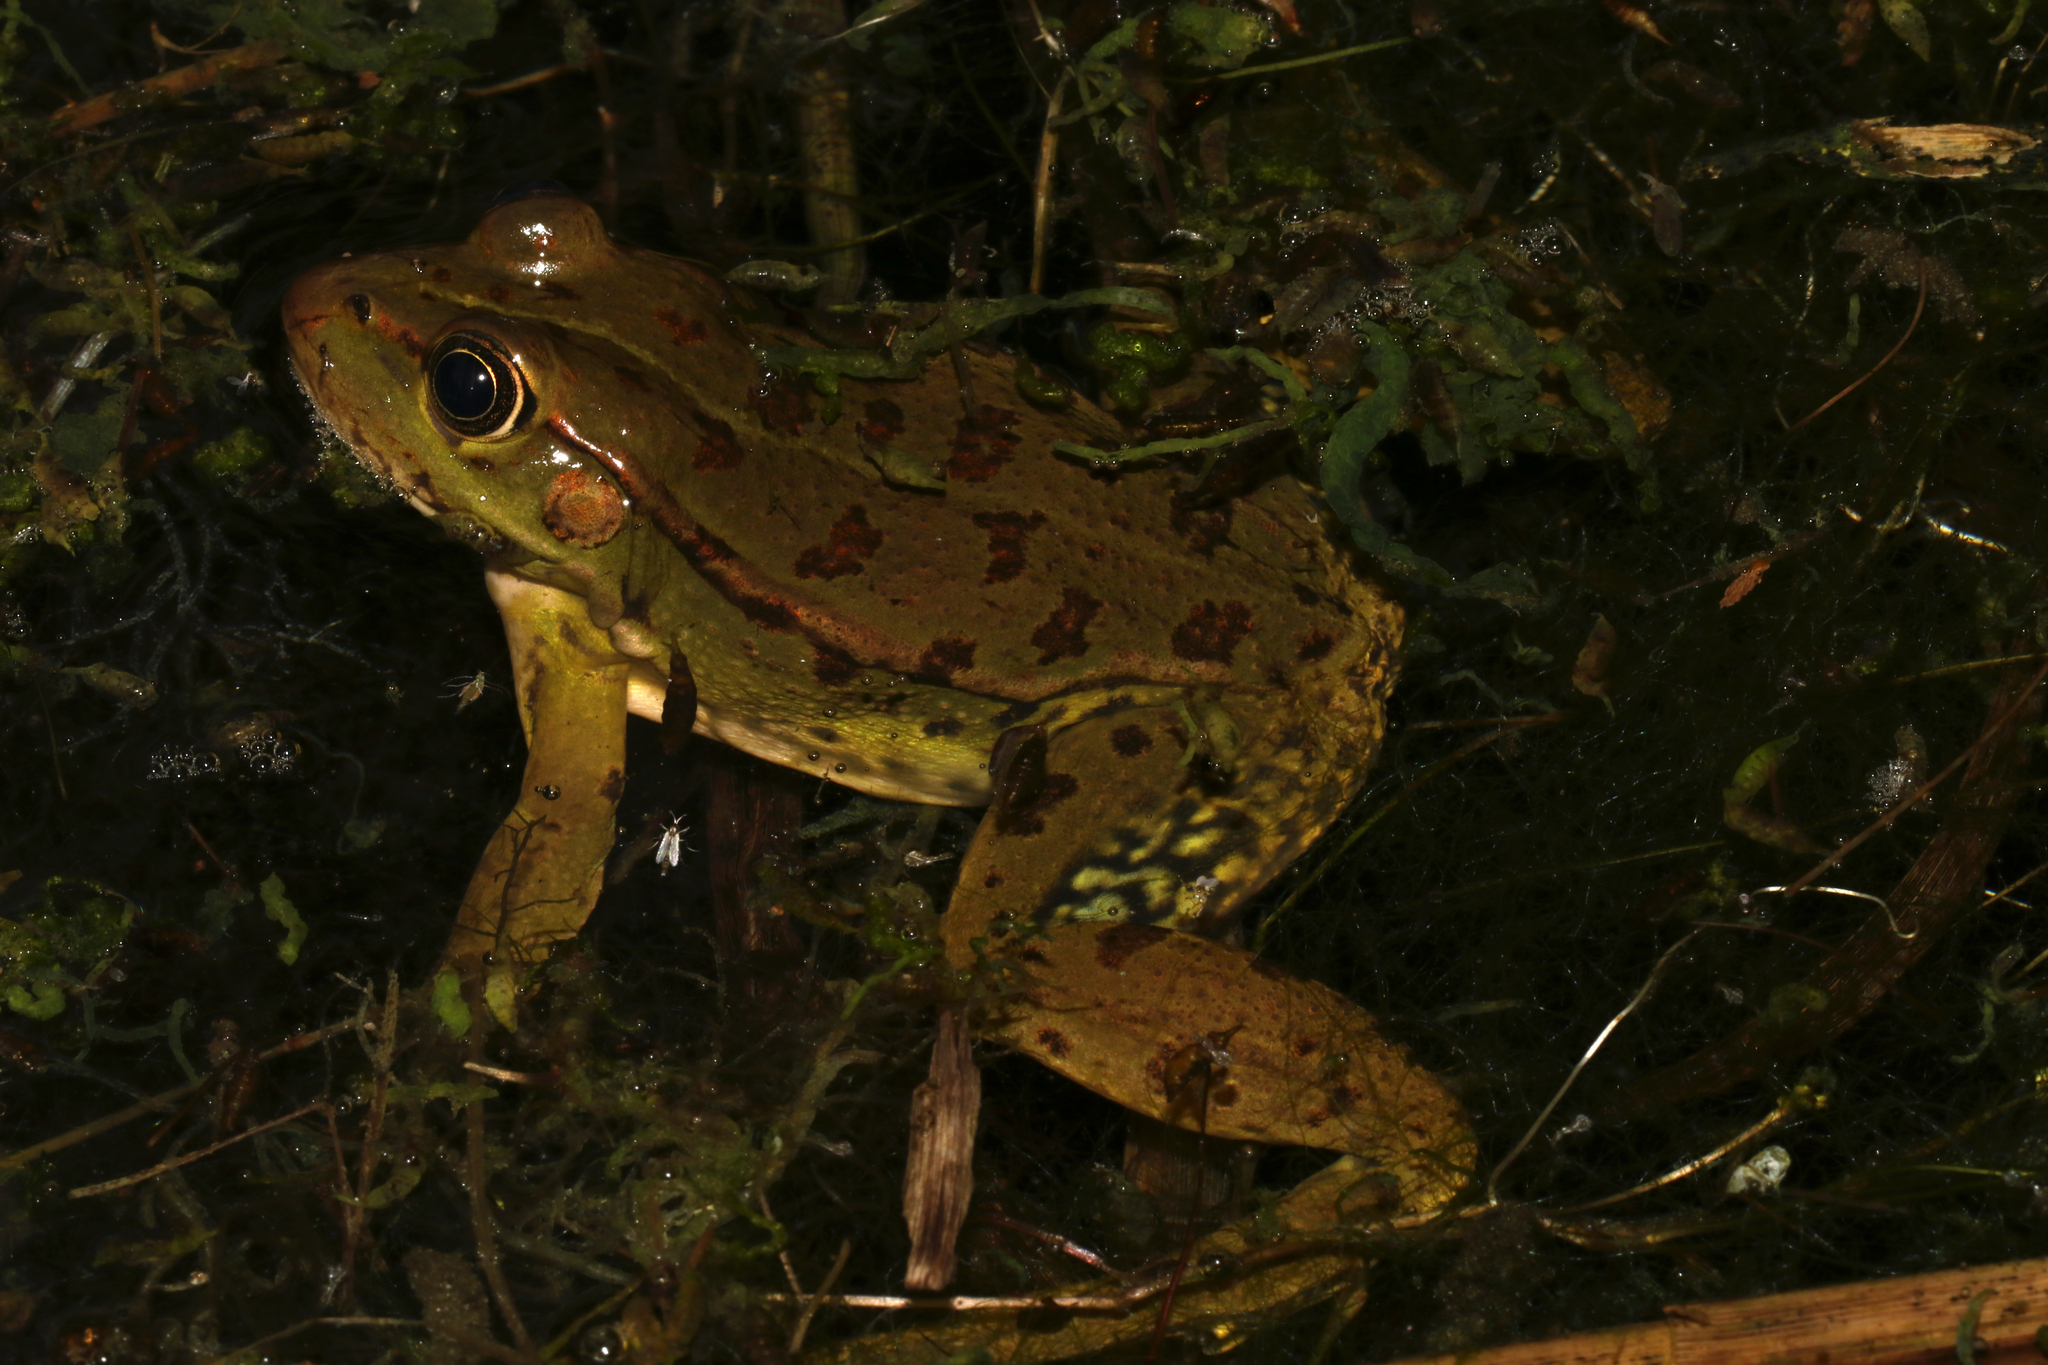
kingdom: Animalia
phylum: Chordata
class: Amphibia
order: Anura
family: Ranidae
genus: Pelophylax
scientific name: Pelophylax epeiroticus
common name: Epirus water frog
